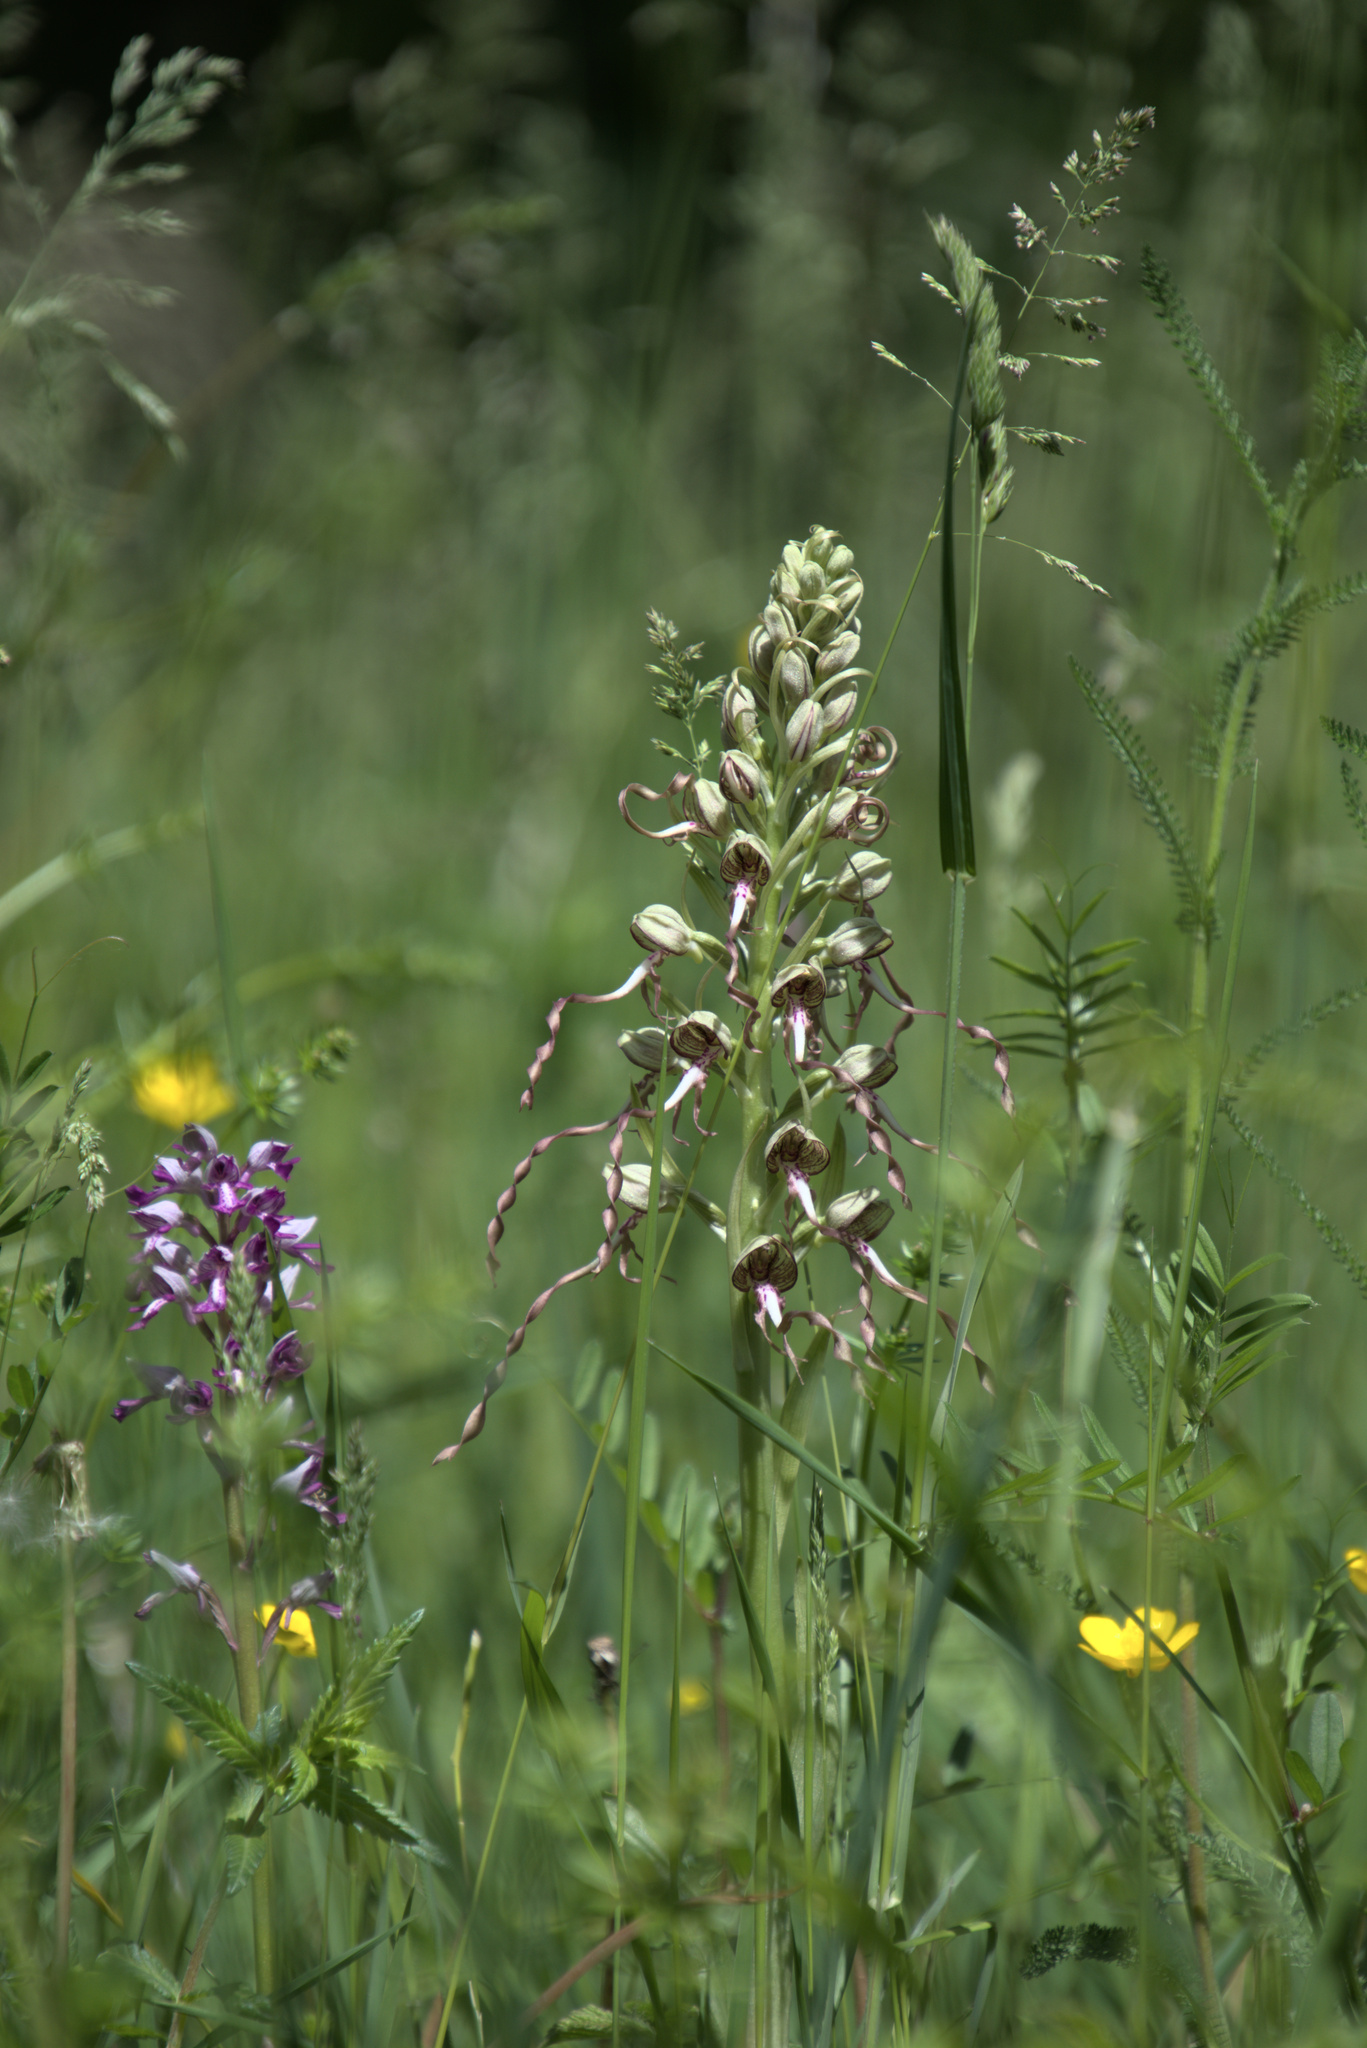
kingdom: Plantae
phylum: Tracheophyta
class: Liliopsida
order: Asparagales
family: Orchidaceae
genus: Himantoglossum
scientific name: Himantoglossum hircinum
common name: Lizard orchid
